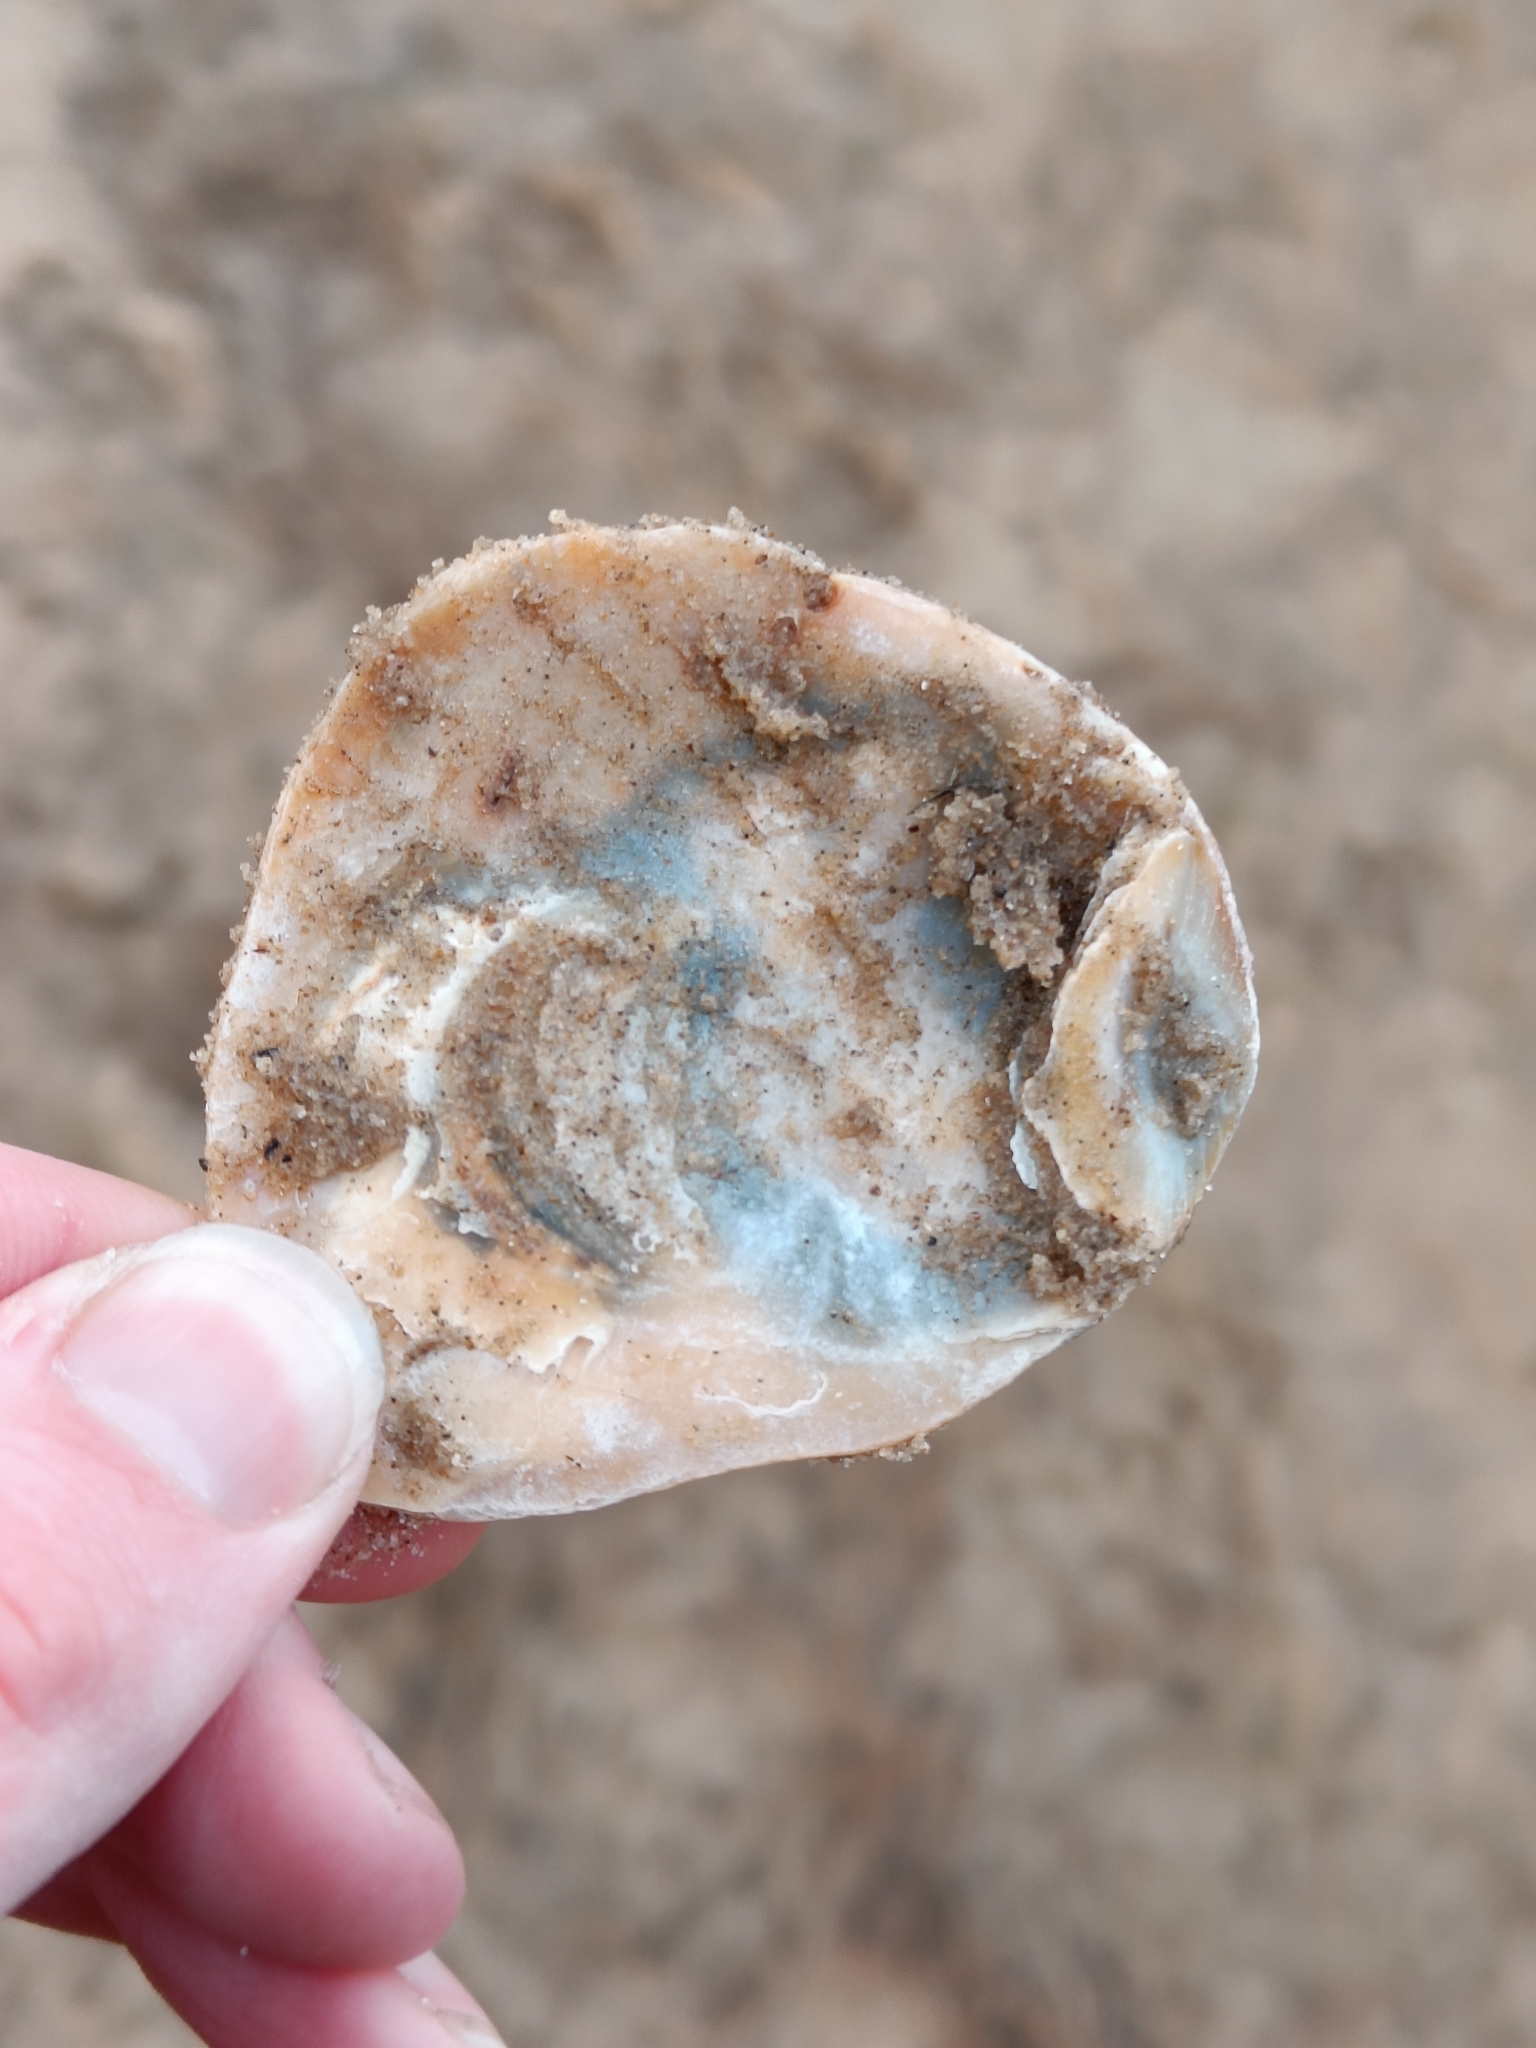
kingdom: Animalia
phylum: Mollusca
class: Bivalvia
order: Ostreida
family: Ostreidae
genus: Ostrea
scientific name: Ostrea edulis
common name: Flat oyster
